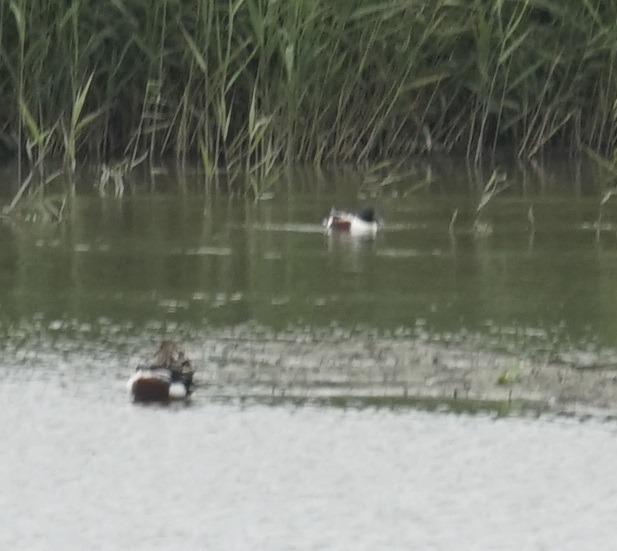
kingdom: Animalia
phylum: Chordata
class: Aves
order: Anseriformes
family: Anatidae
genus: Spatula
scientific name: Spatula clypeata
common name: Northern shoveler
